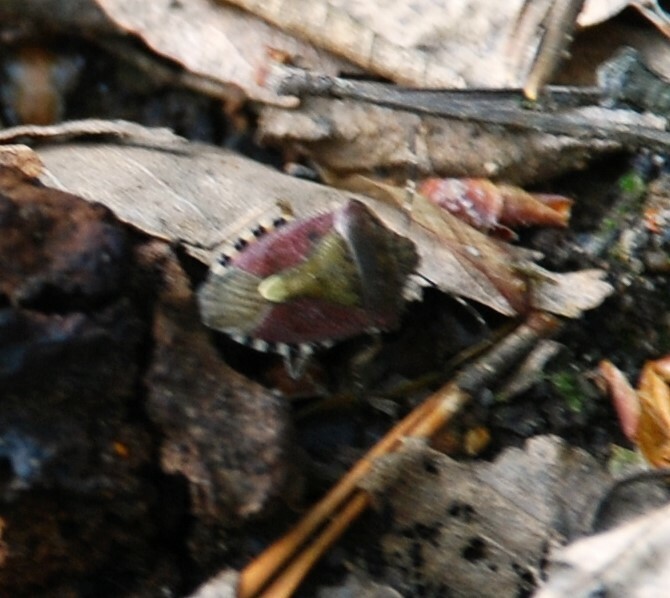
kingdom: Animalia
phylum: Arthropoda
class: Insecta
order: Hemiptera
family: Pentatomidae
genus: Dolycoris
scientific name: Dolycoris baccarum
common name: Sloe bug
